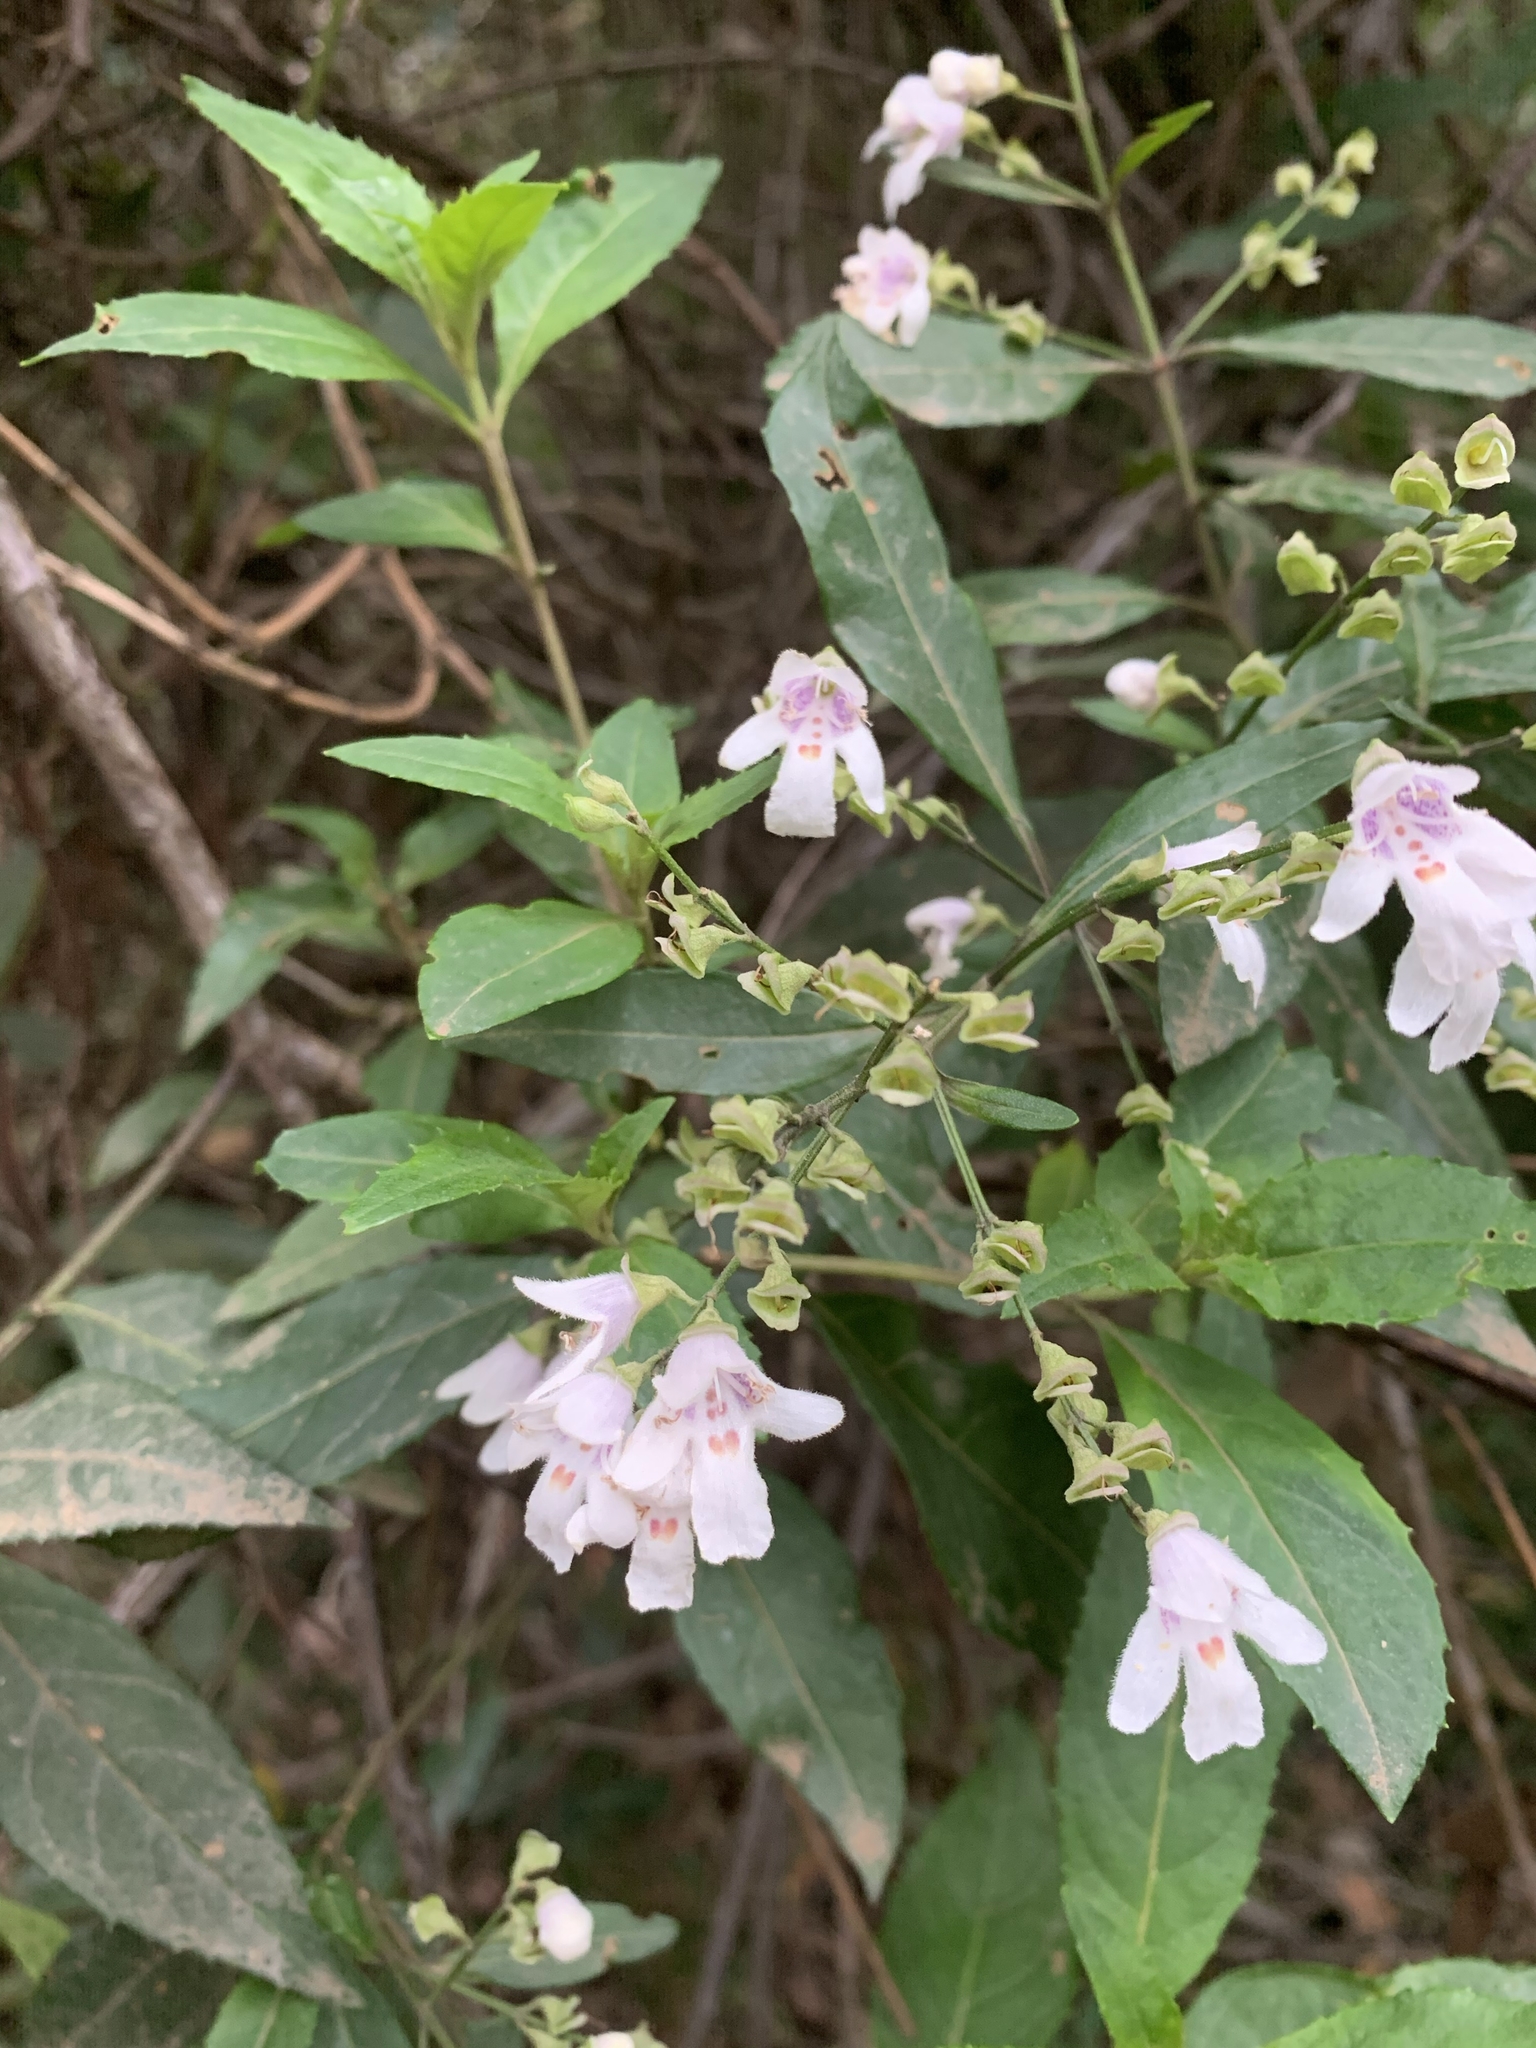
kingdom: Plantae
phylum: Tracheophyta
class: Magnoliopsida
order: Lamiales
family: Lamiaceae
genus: Prostanthera
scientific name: Prostanthera lasianthos
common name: Mountain-lilac
